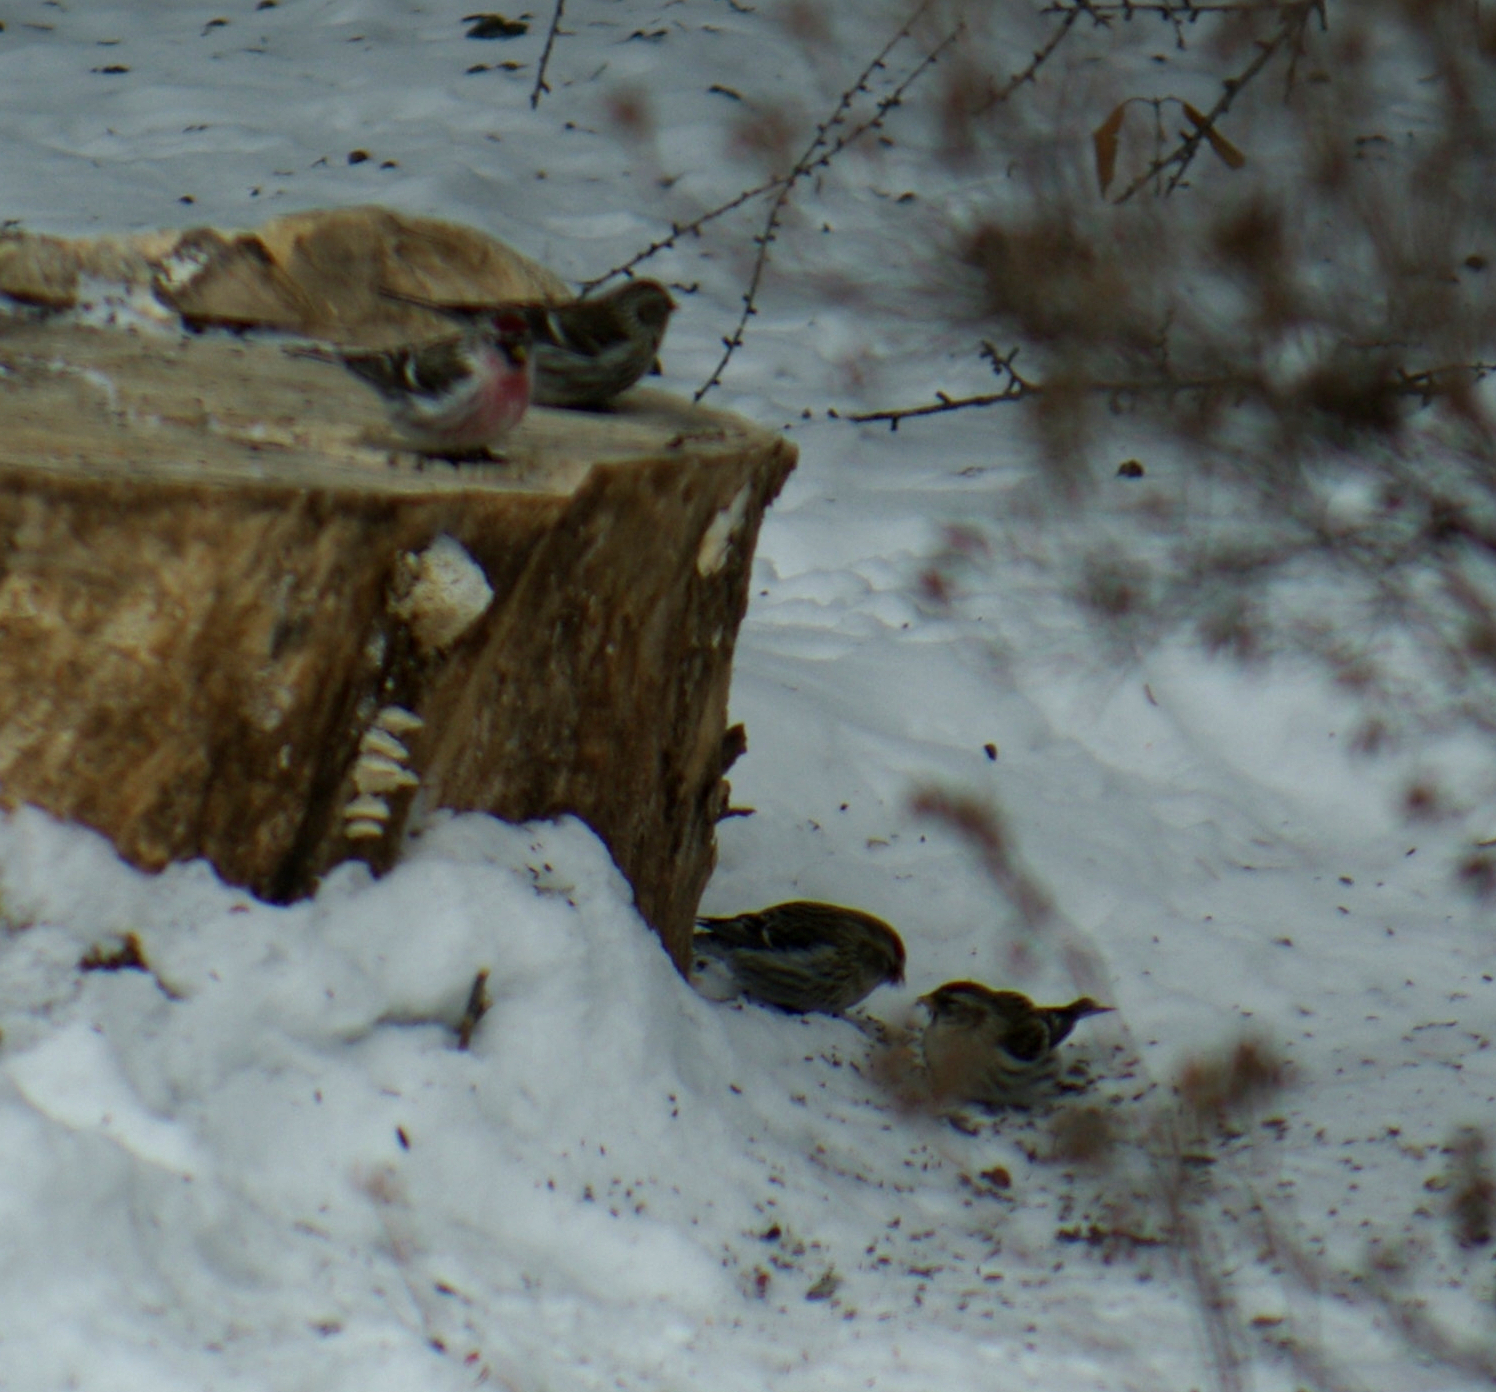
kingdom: Animalia
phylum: Chordata
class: Aves
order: Passeriformes
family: Fringillidae
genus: Acanthis
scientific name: Acanthis flammea
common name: Common redpoll
